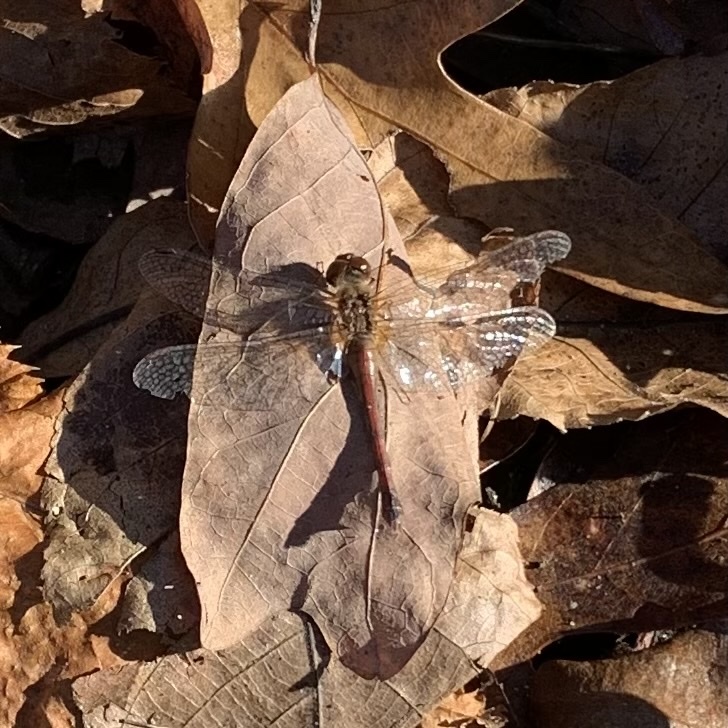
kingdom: Animalia
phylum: Arthropoda
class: Insecta
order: Odonata
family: Libellulidae
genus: Sympetrum
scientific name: Sympetrum vicinum
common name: Autumn meadowhawk
